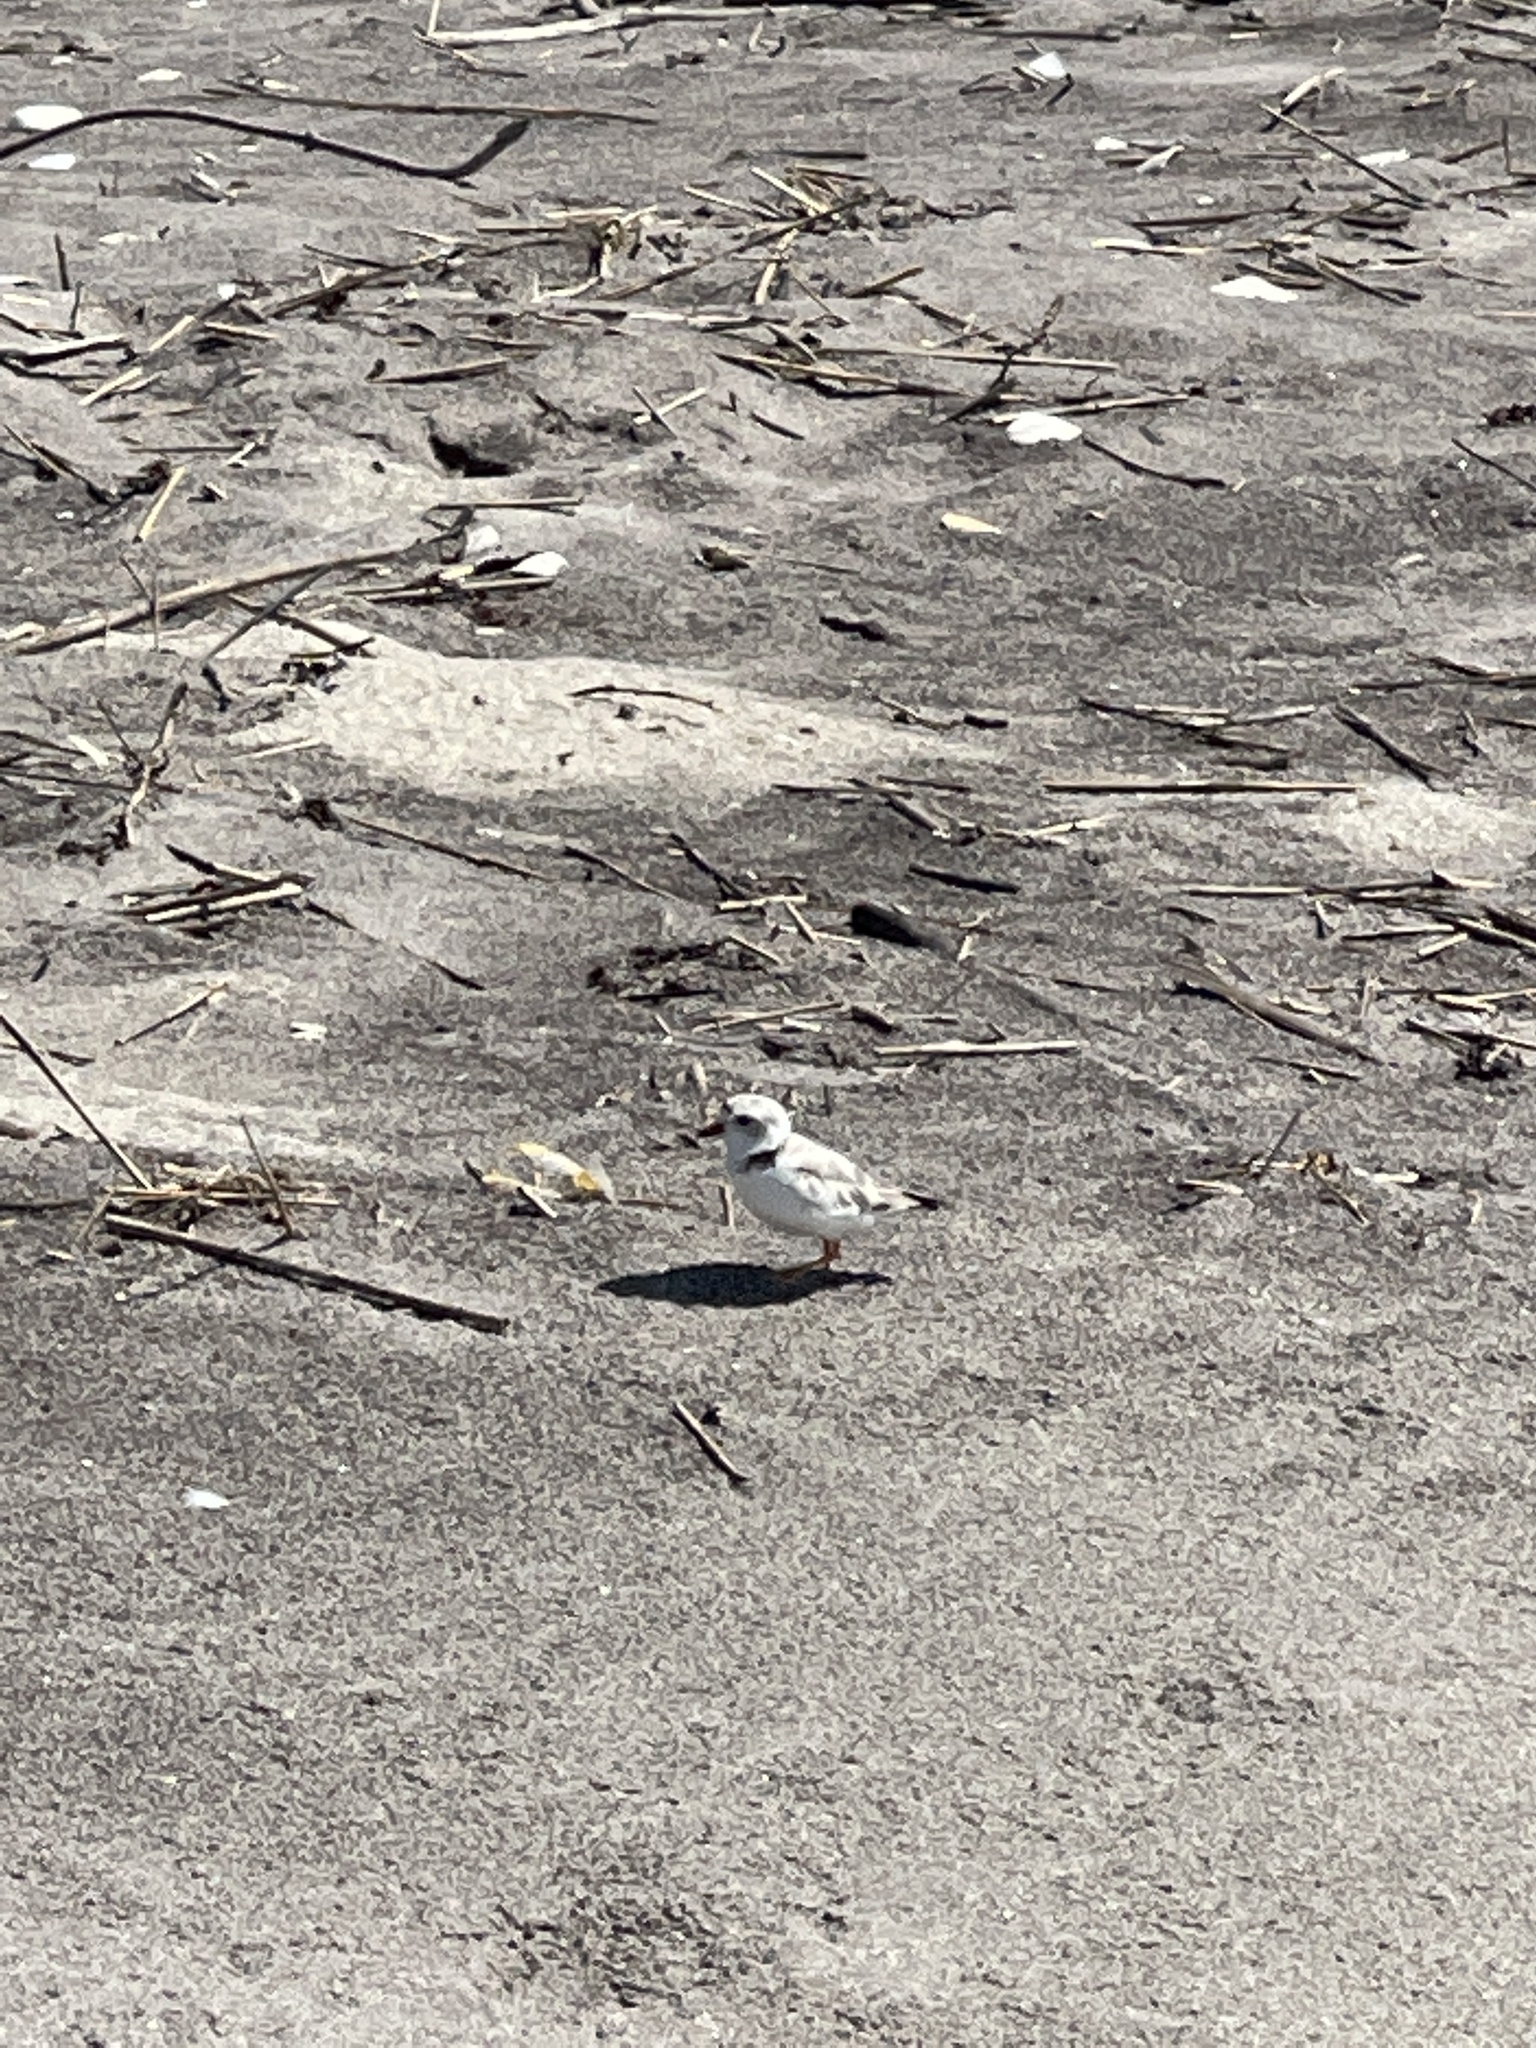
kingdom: Animalia
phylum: Chordata
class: Aves
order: Charadriiformes
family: Charadriidae
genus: Charadrius
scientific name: Charadrius melodus
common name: Piping plover
